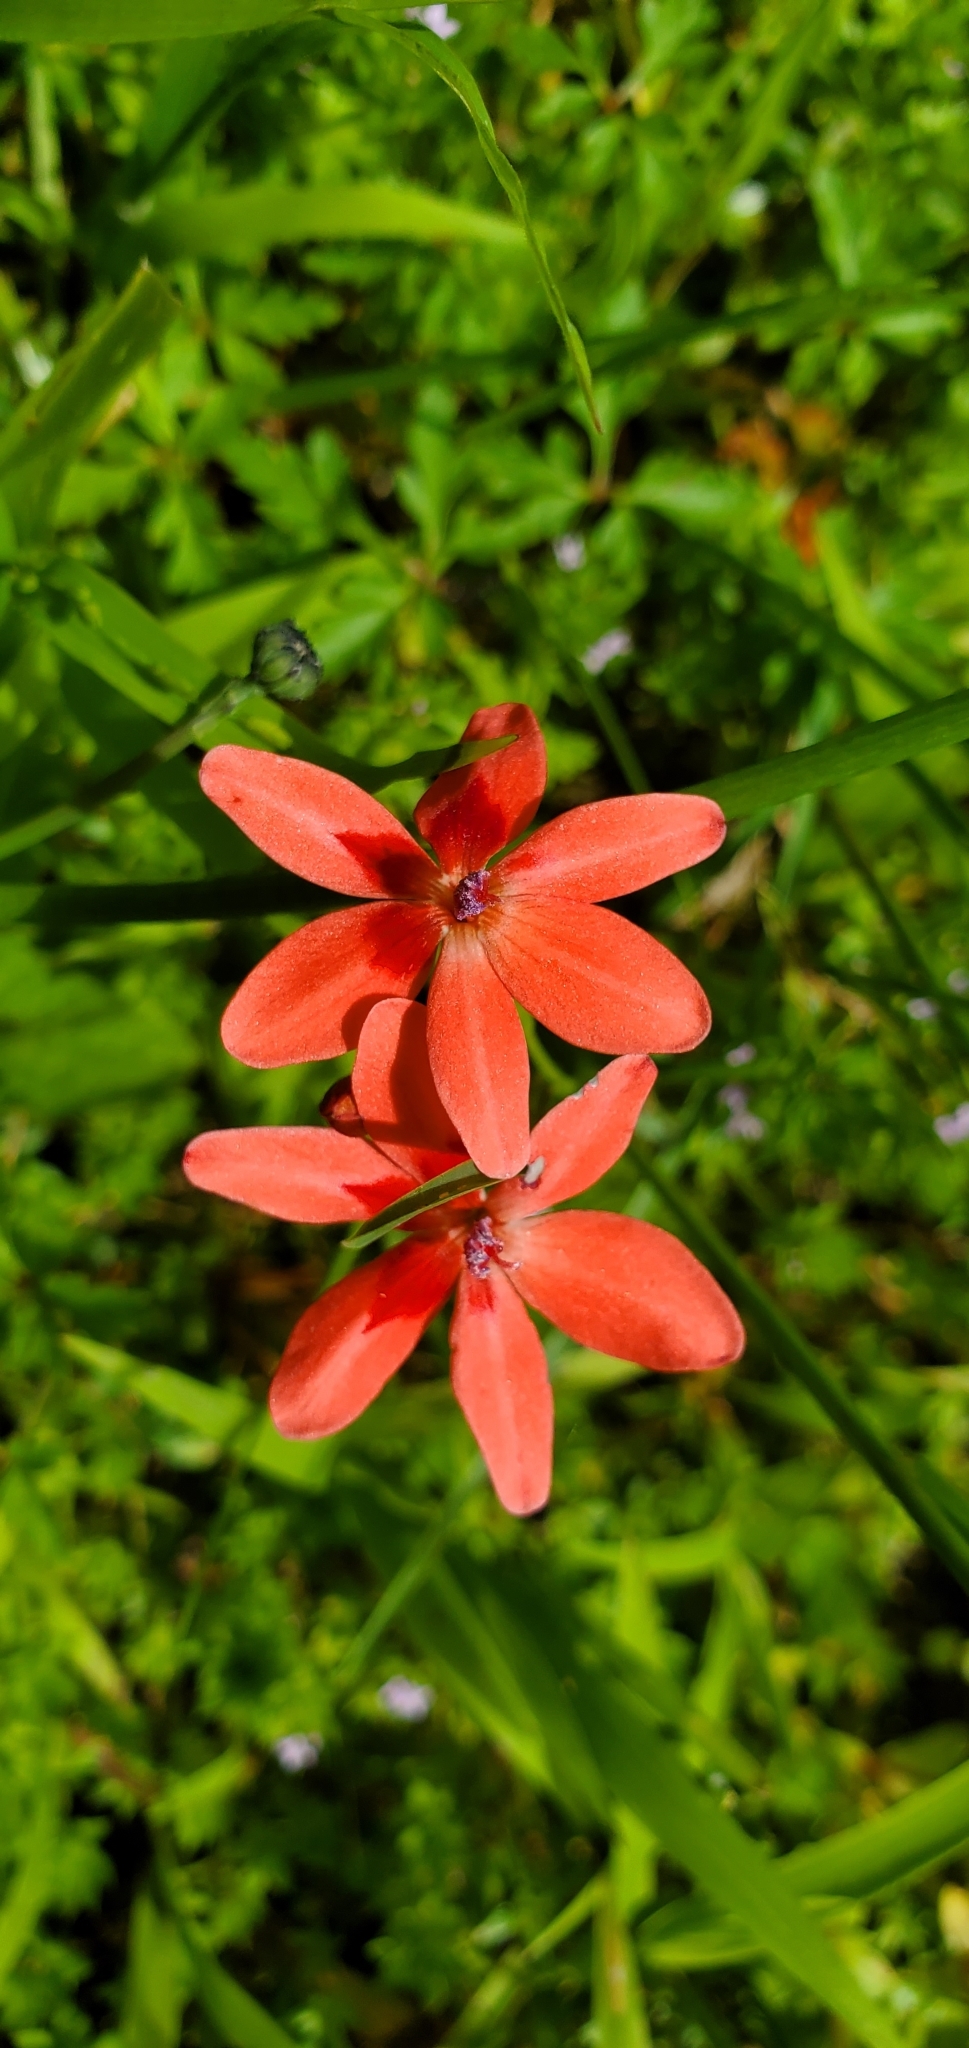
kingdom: Plantae
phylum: Tracheophyta
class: Liliopsida
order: Asparagales
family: Iridaceae
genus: Freesia
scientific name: Freesia laxa
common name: False freesia
